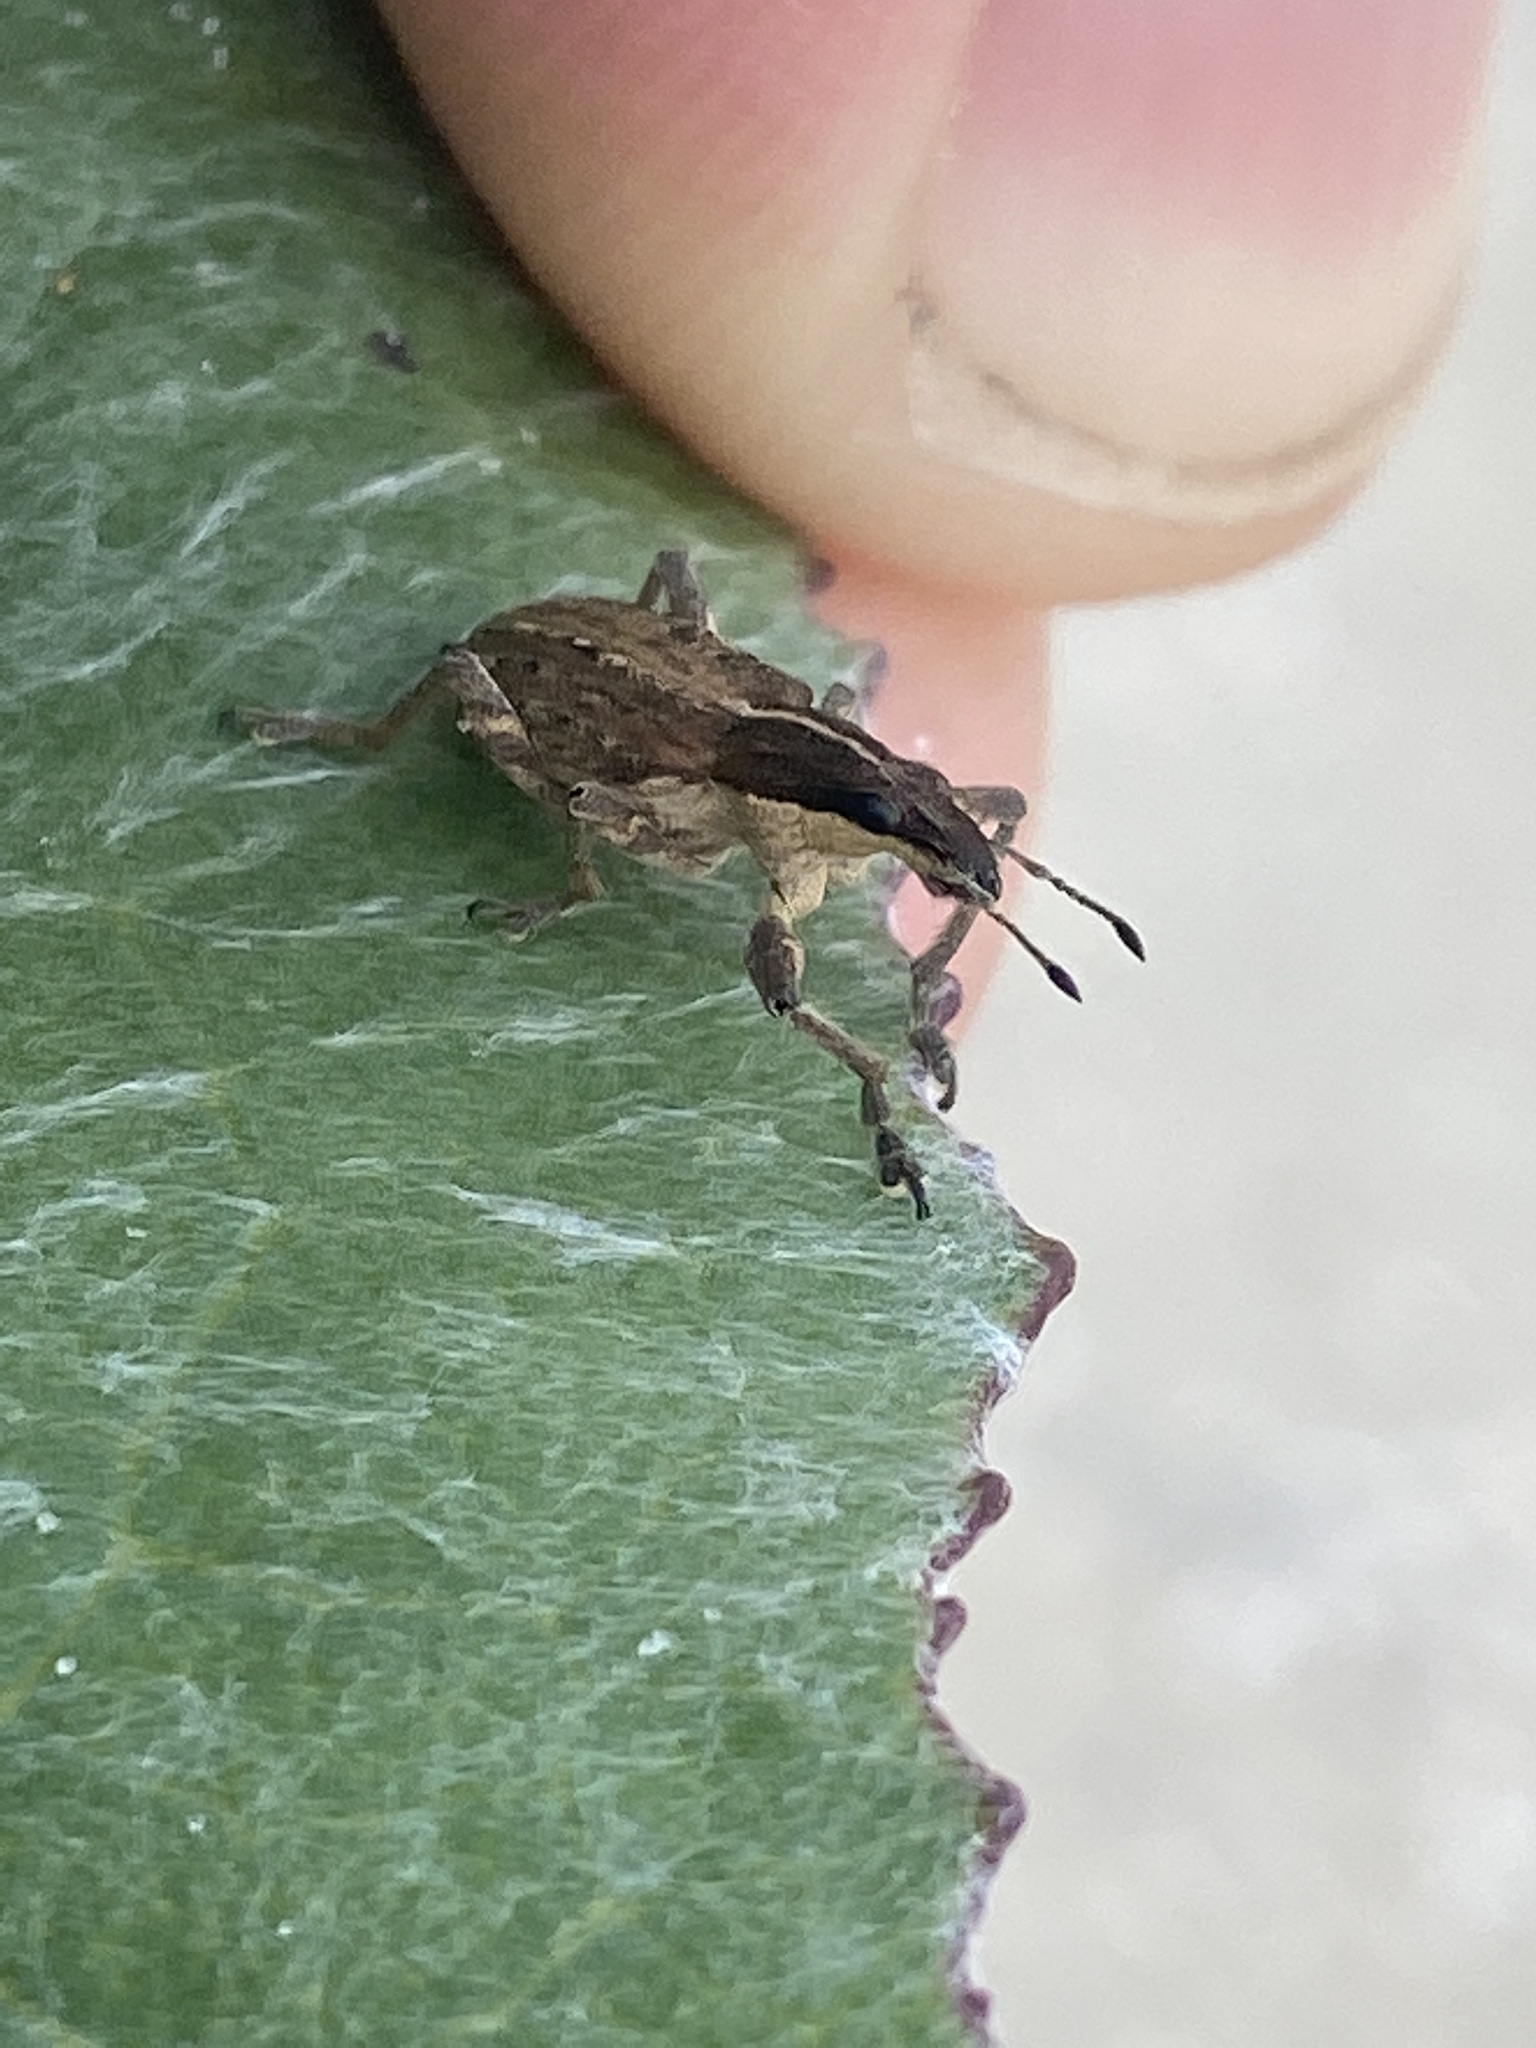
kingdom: Animalia
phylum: Arthropoda
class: Insecta
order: Coleoptera
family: Curculionidae
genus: Charagmus
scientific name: Charagmus gressorius
